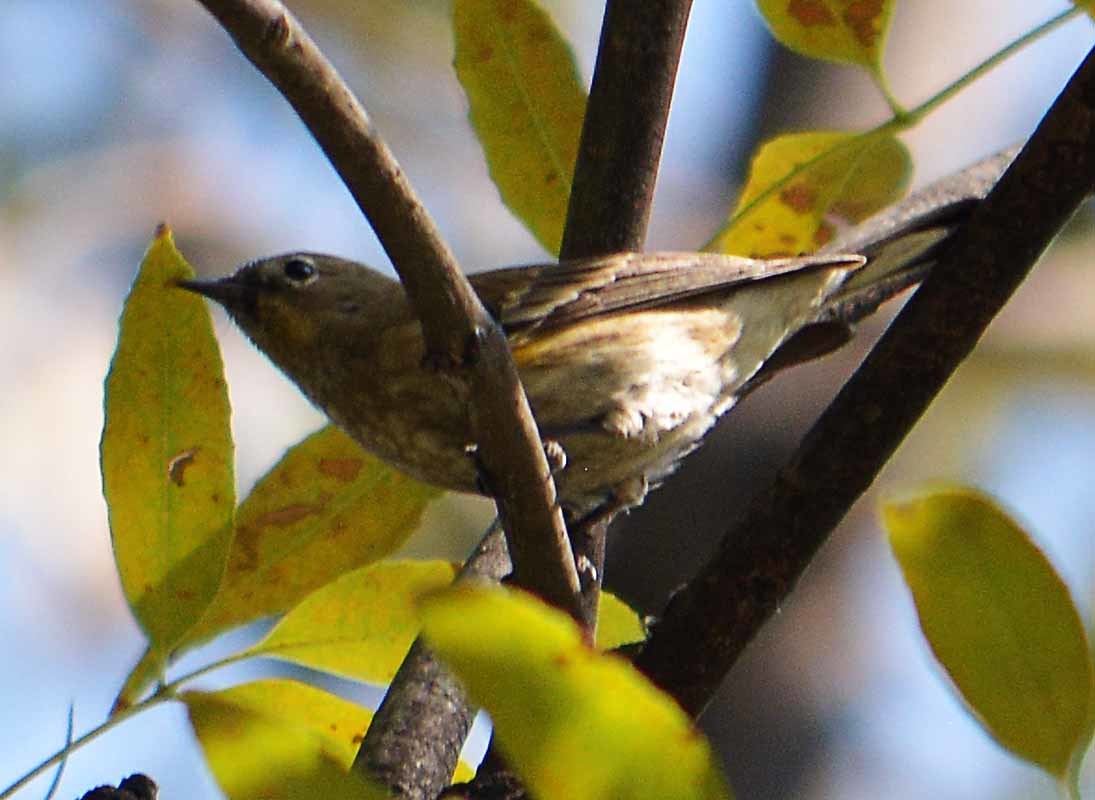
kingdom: Animalia
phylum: Chordata
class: Aves
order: Passeriformes
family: Parulidae
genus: Setophaga
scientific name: Setophaga coronata
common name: Myrtle warbler
